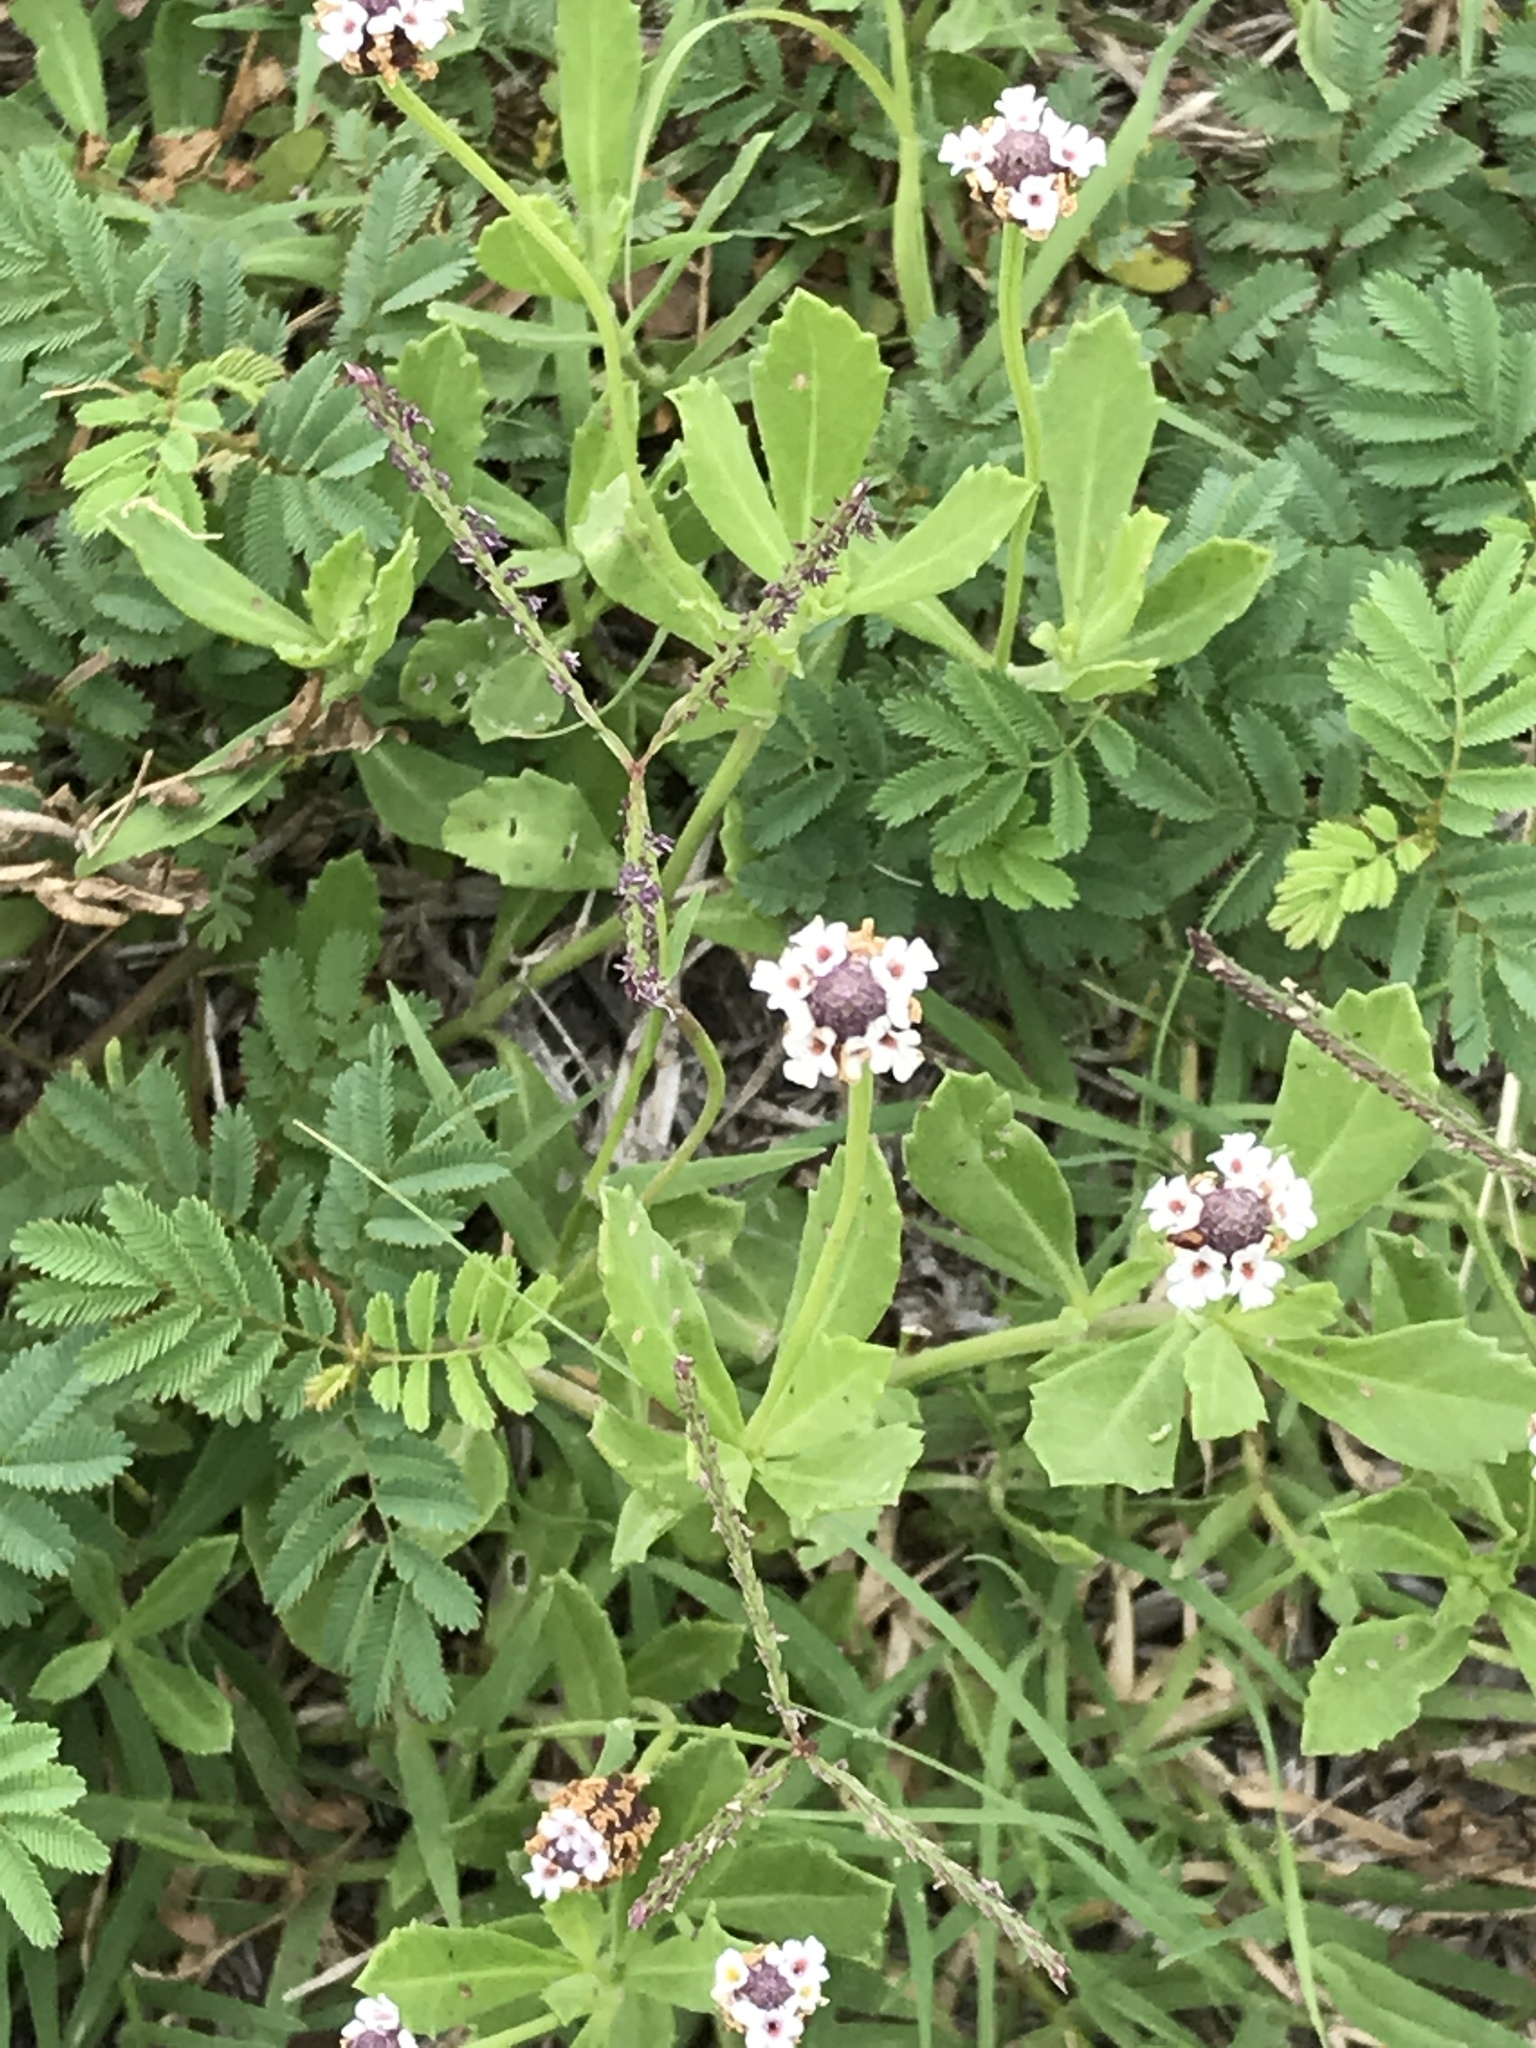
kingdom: Plantae
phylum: Tracheophyta
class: Magnoliopsida
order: Lamiales
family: Verbenaceae
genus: Phyla
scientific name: Phyla nodiflora
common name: Frogfruit
